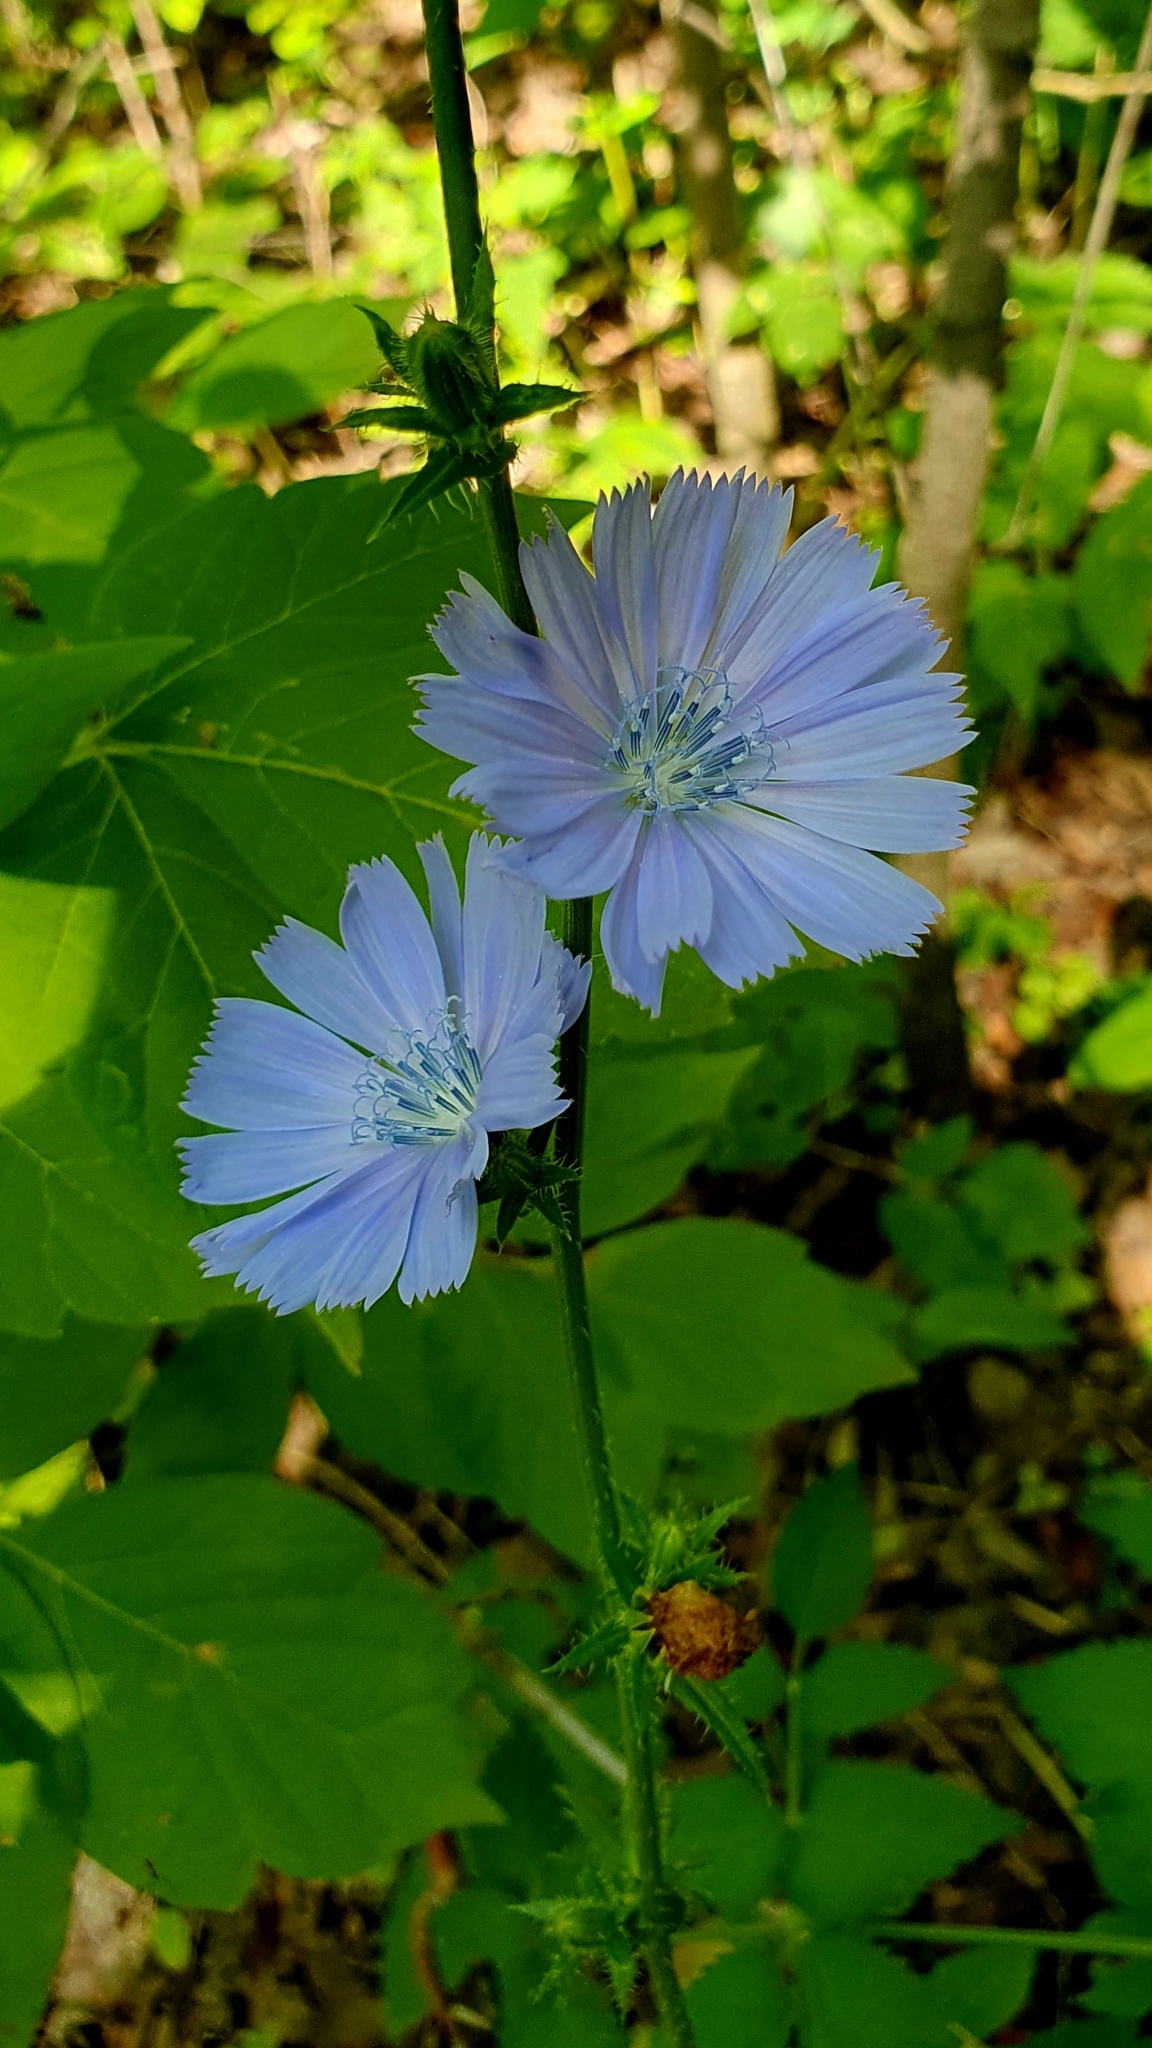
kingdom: Plantae
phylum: Tracheophyta
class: Magnoliopsida
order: Asterales
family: Asteraceae
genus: Cichorium
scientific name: Cichorium intybus
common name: Chicory
